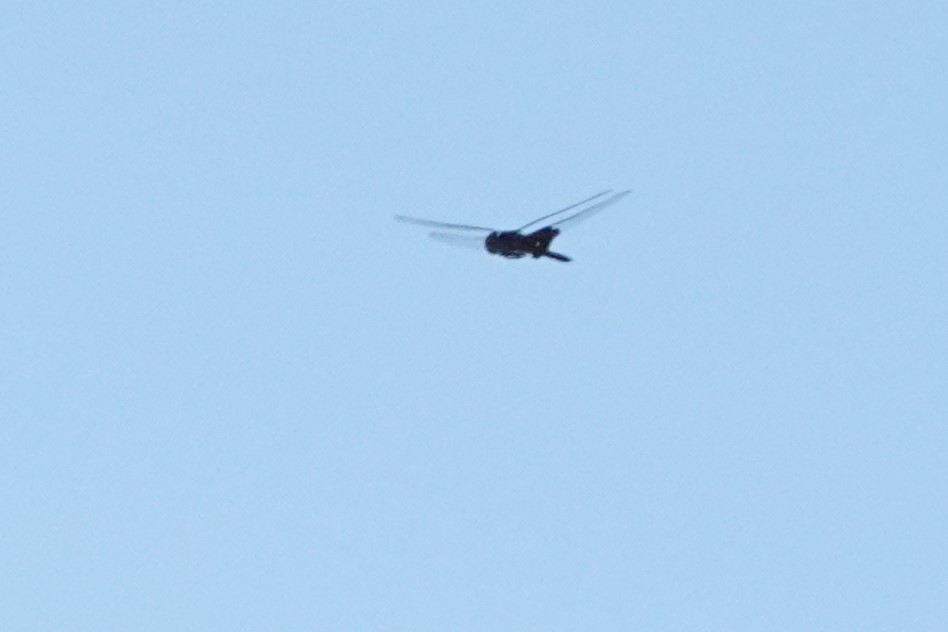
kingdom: Animalia
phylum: Arthropoda
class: Insecta
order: Odonata
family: Libellulidae
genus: Tramea
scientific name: Tramea lacerata
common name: Black saddlebags
